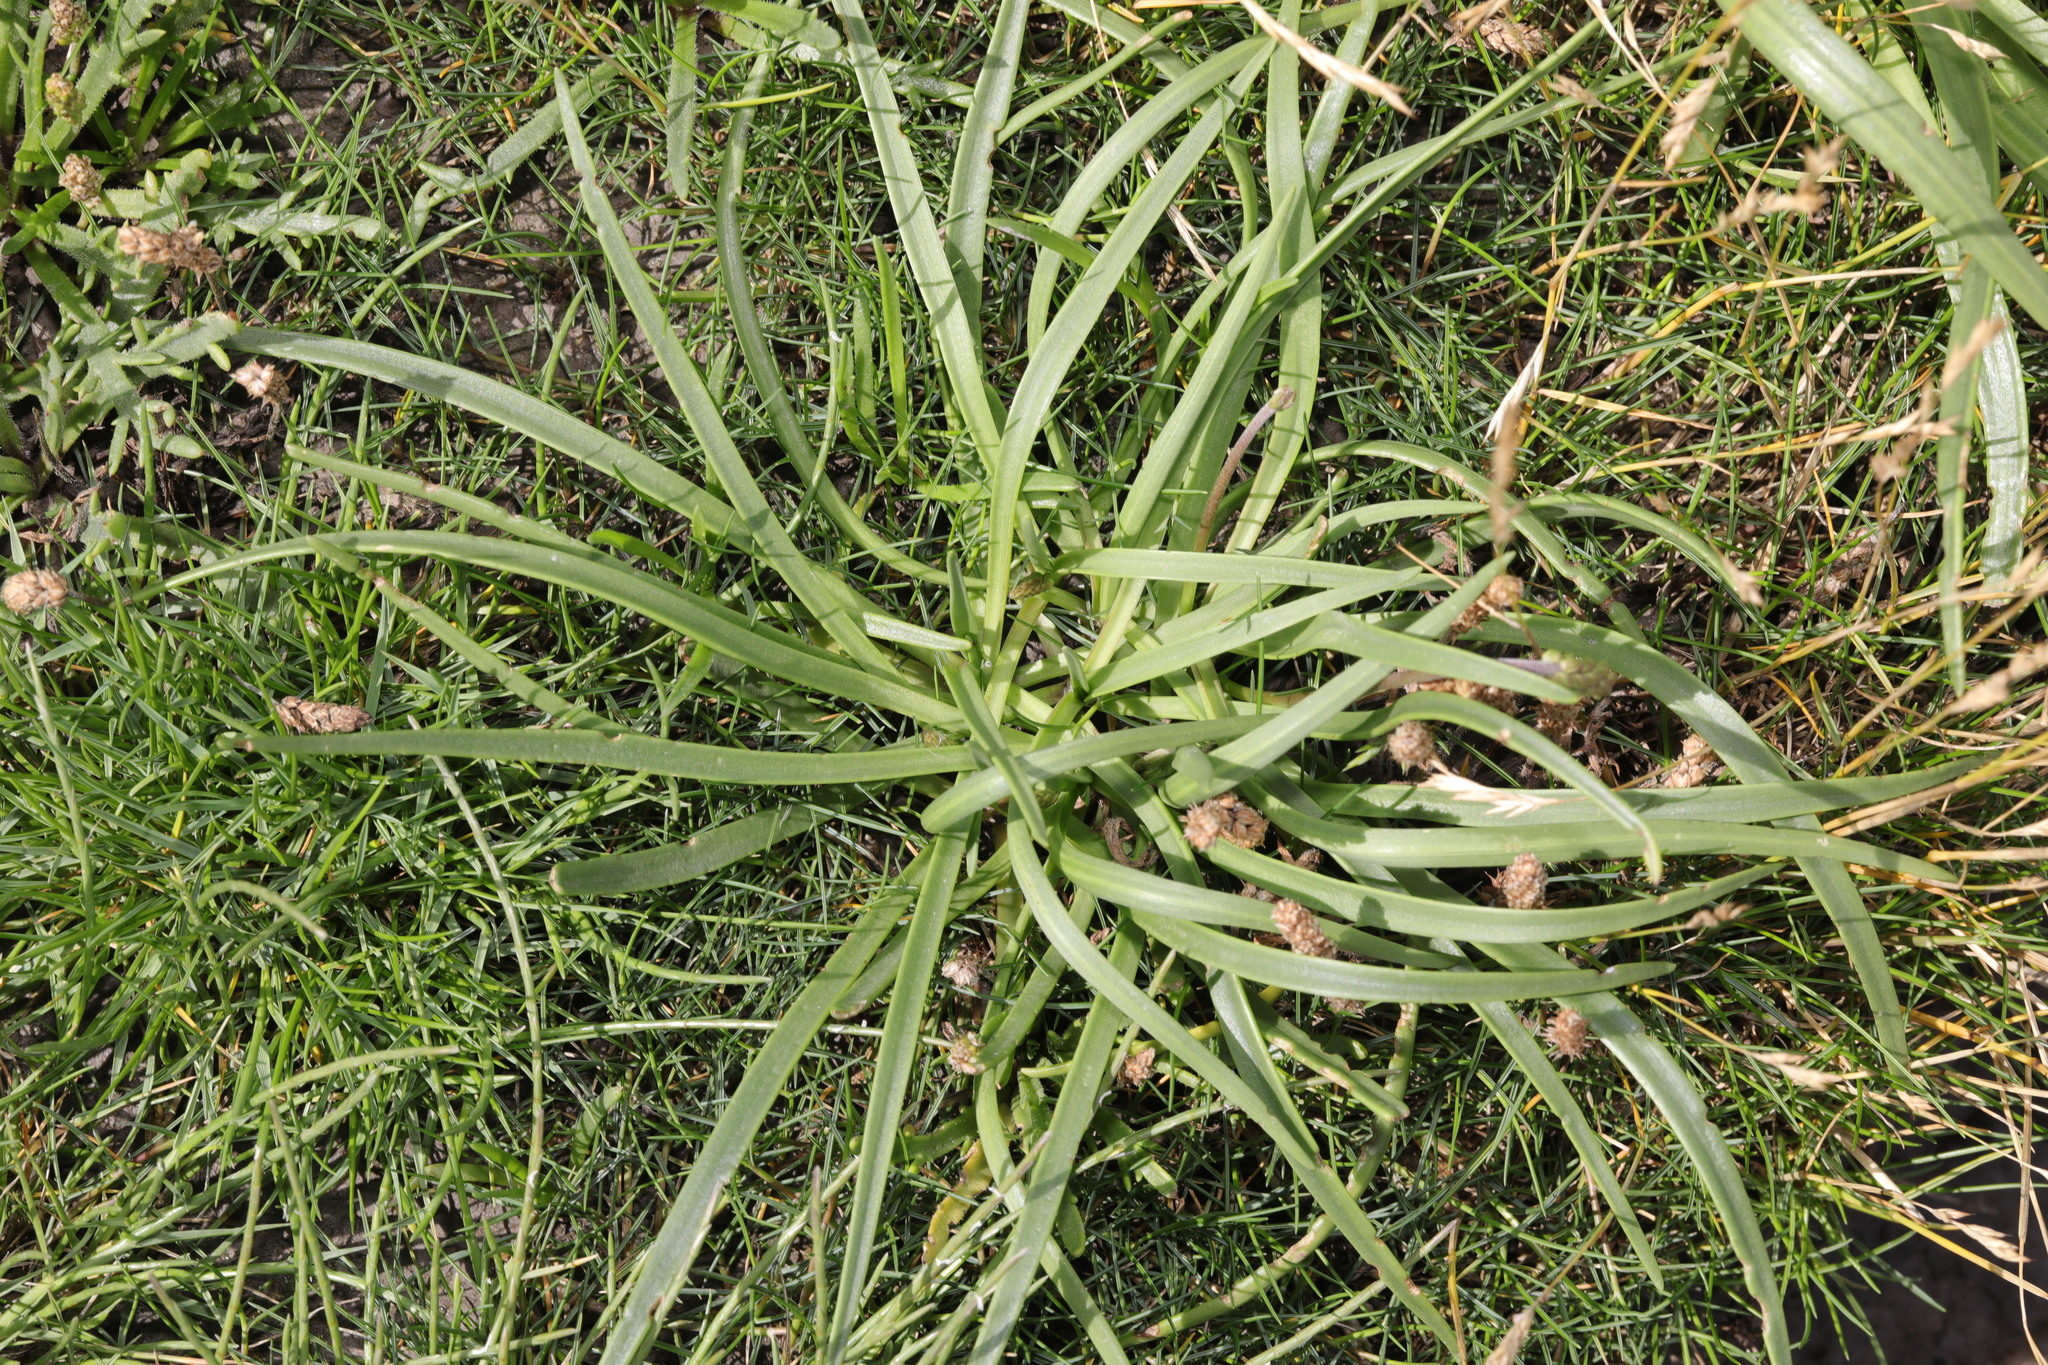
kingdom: Plantae
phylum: Tracheophyta
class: Magnoliopsida
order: Lamiales
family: Plantaginaceae
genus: Plantago
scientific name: Plantago maritima
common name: Sea plantain
